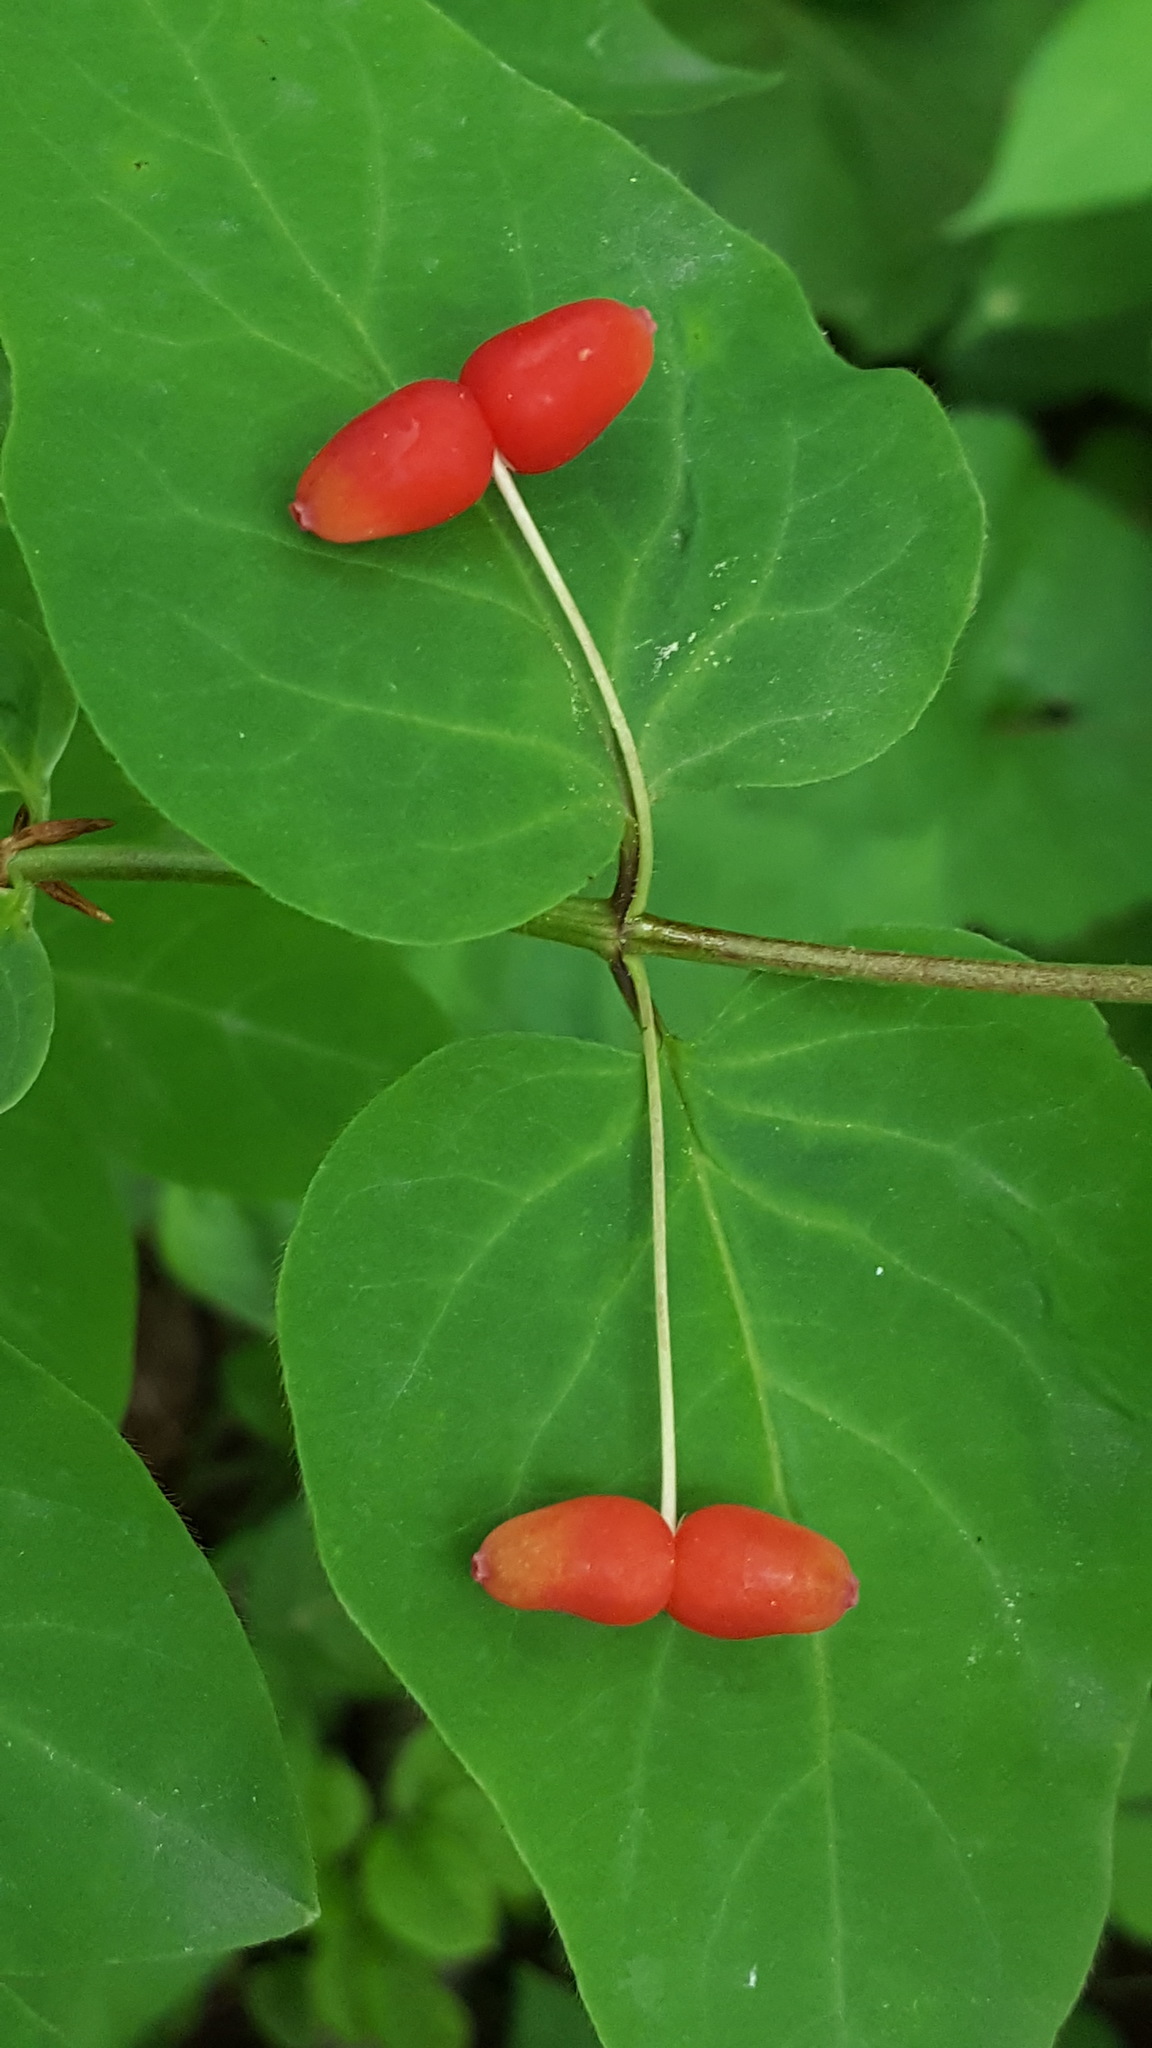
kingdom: Plantae
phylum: Tracheophyta
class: Magnoliopsida
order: Dipsacales
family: Caprifoliaceae
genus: Lonicera
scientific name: Lonicera canadensis
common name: American fly-honeysuckle
